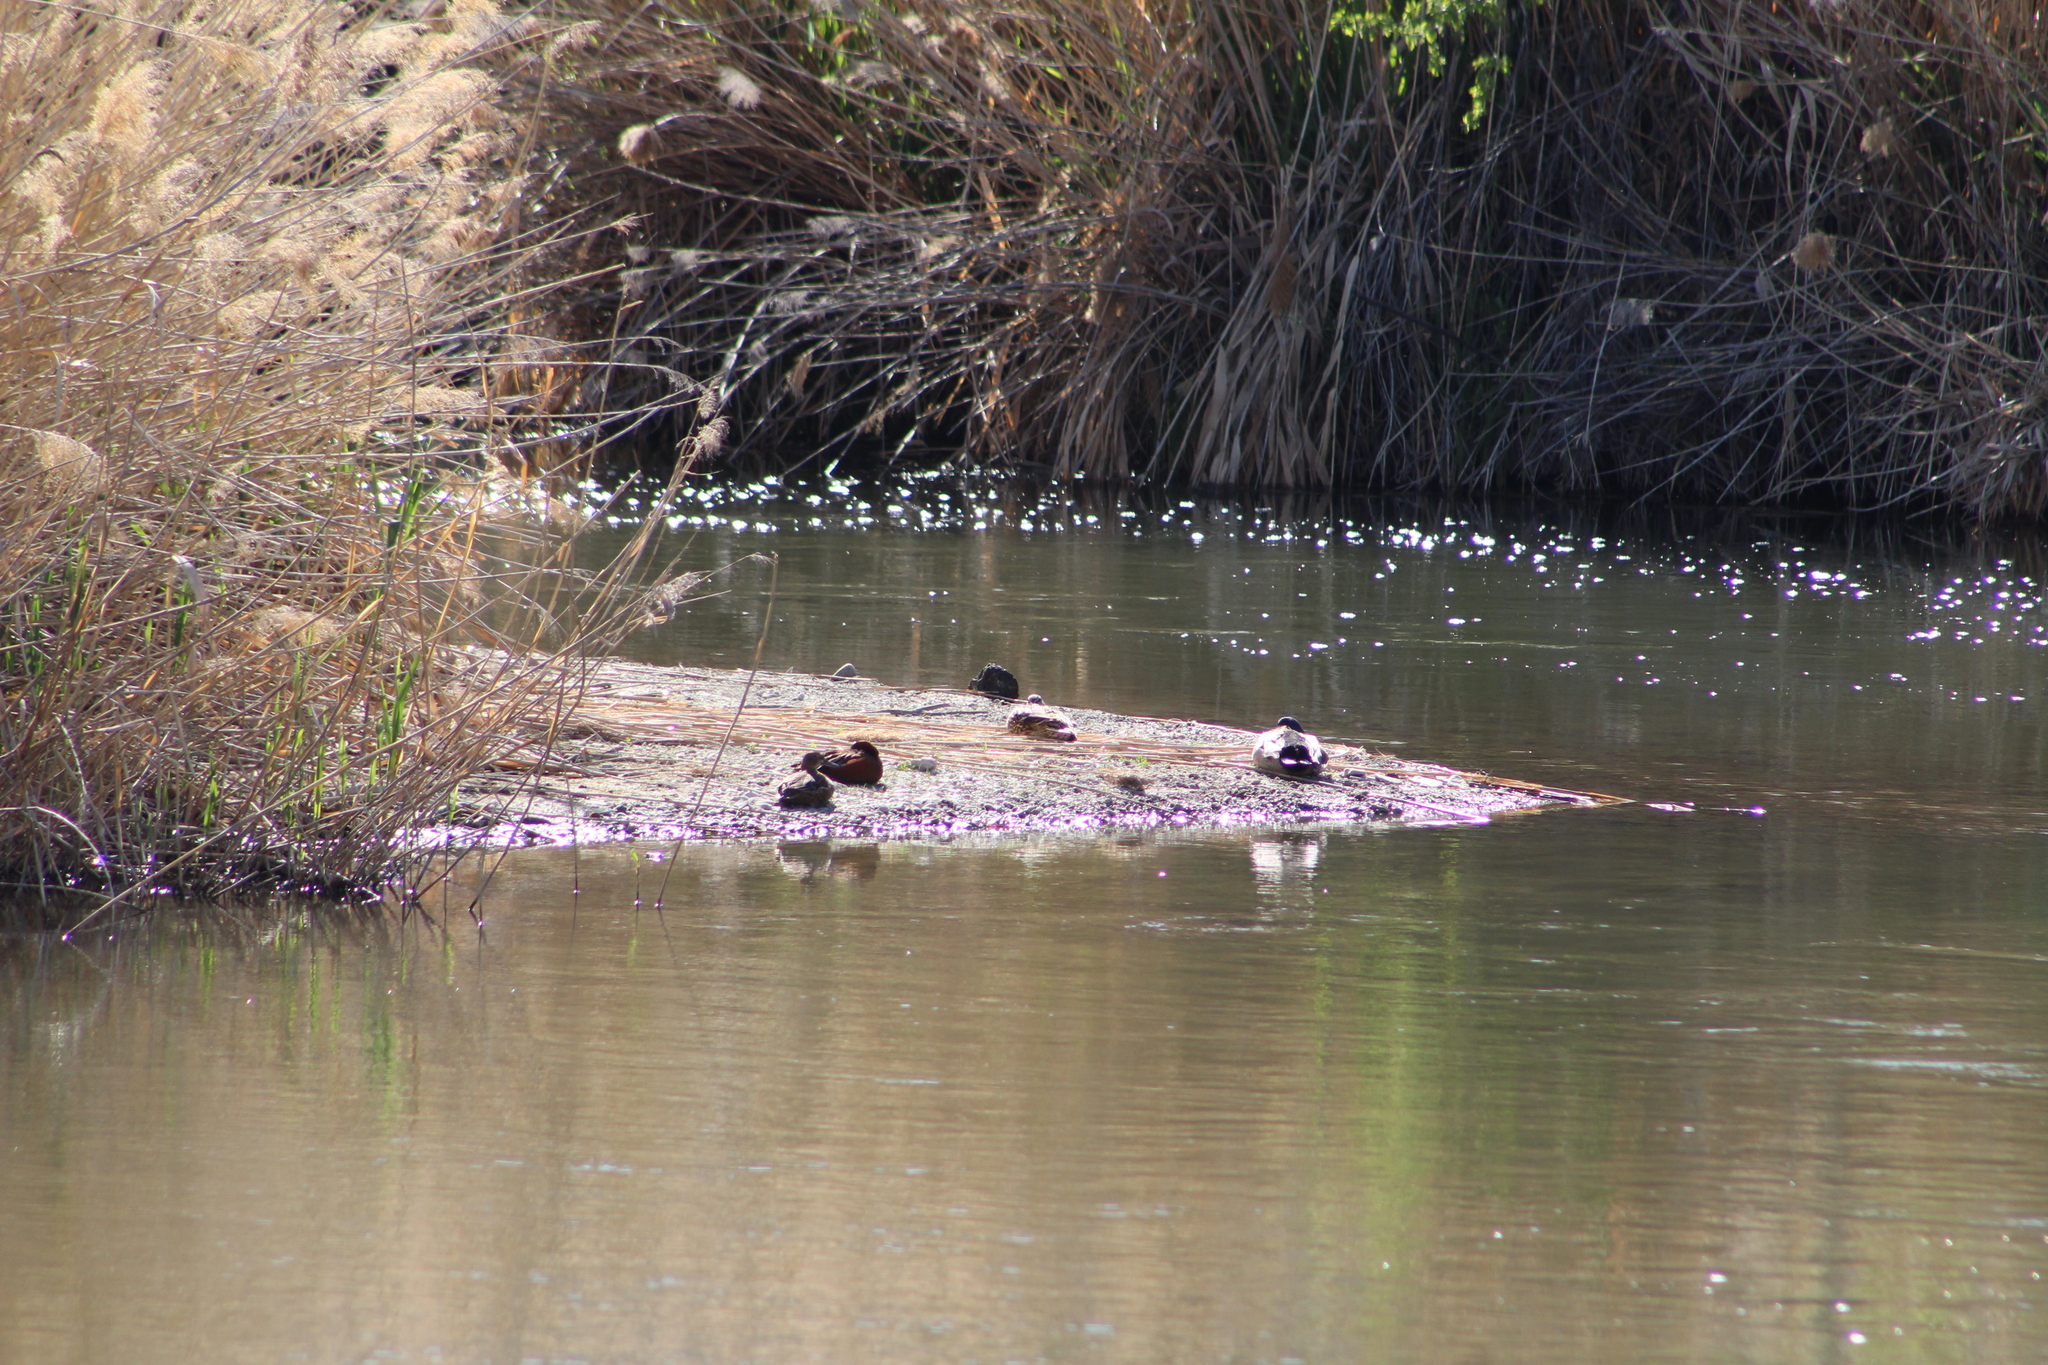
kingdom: Animalia
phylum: Chordata
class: Aves
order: Anseriformes
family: Anatidae
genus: Spatula
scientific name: Spatula cyanoptera
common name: Cinnamon teal
